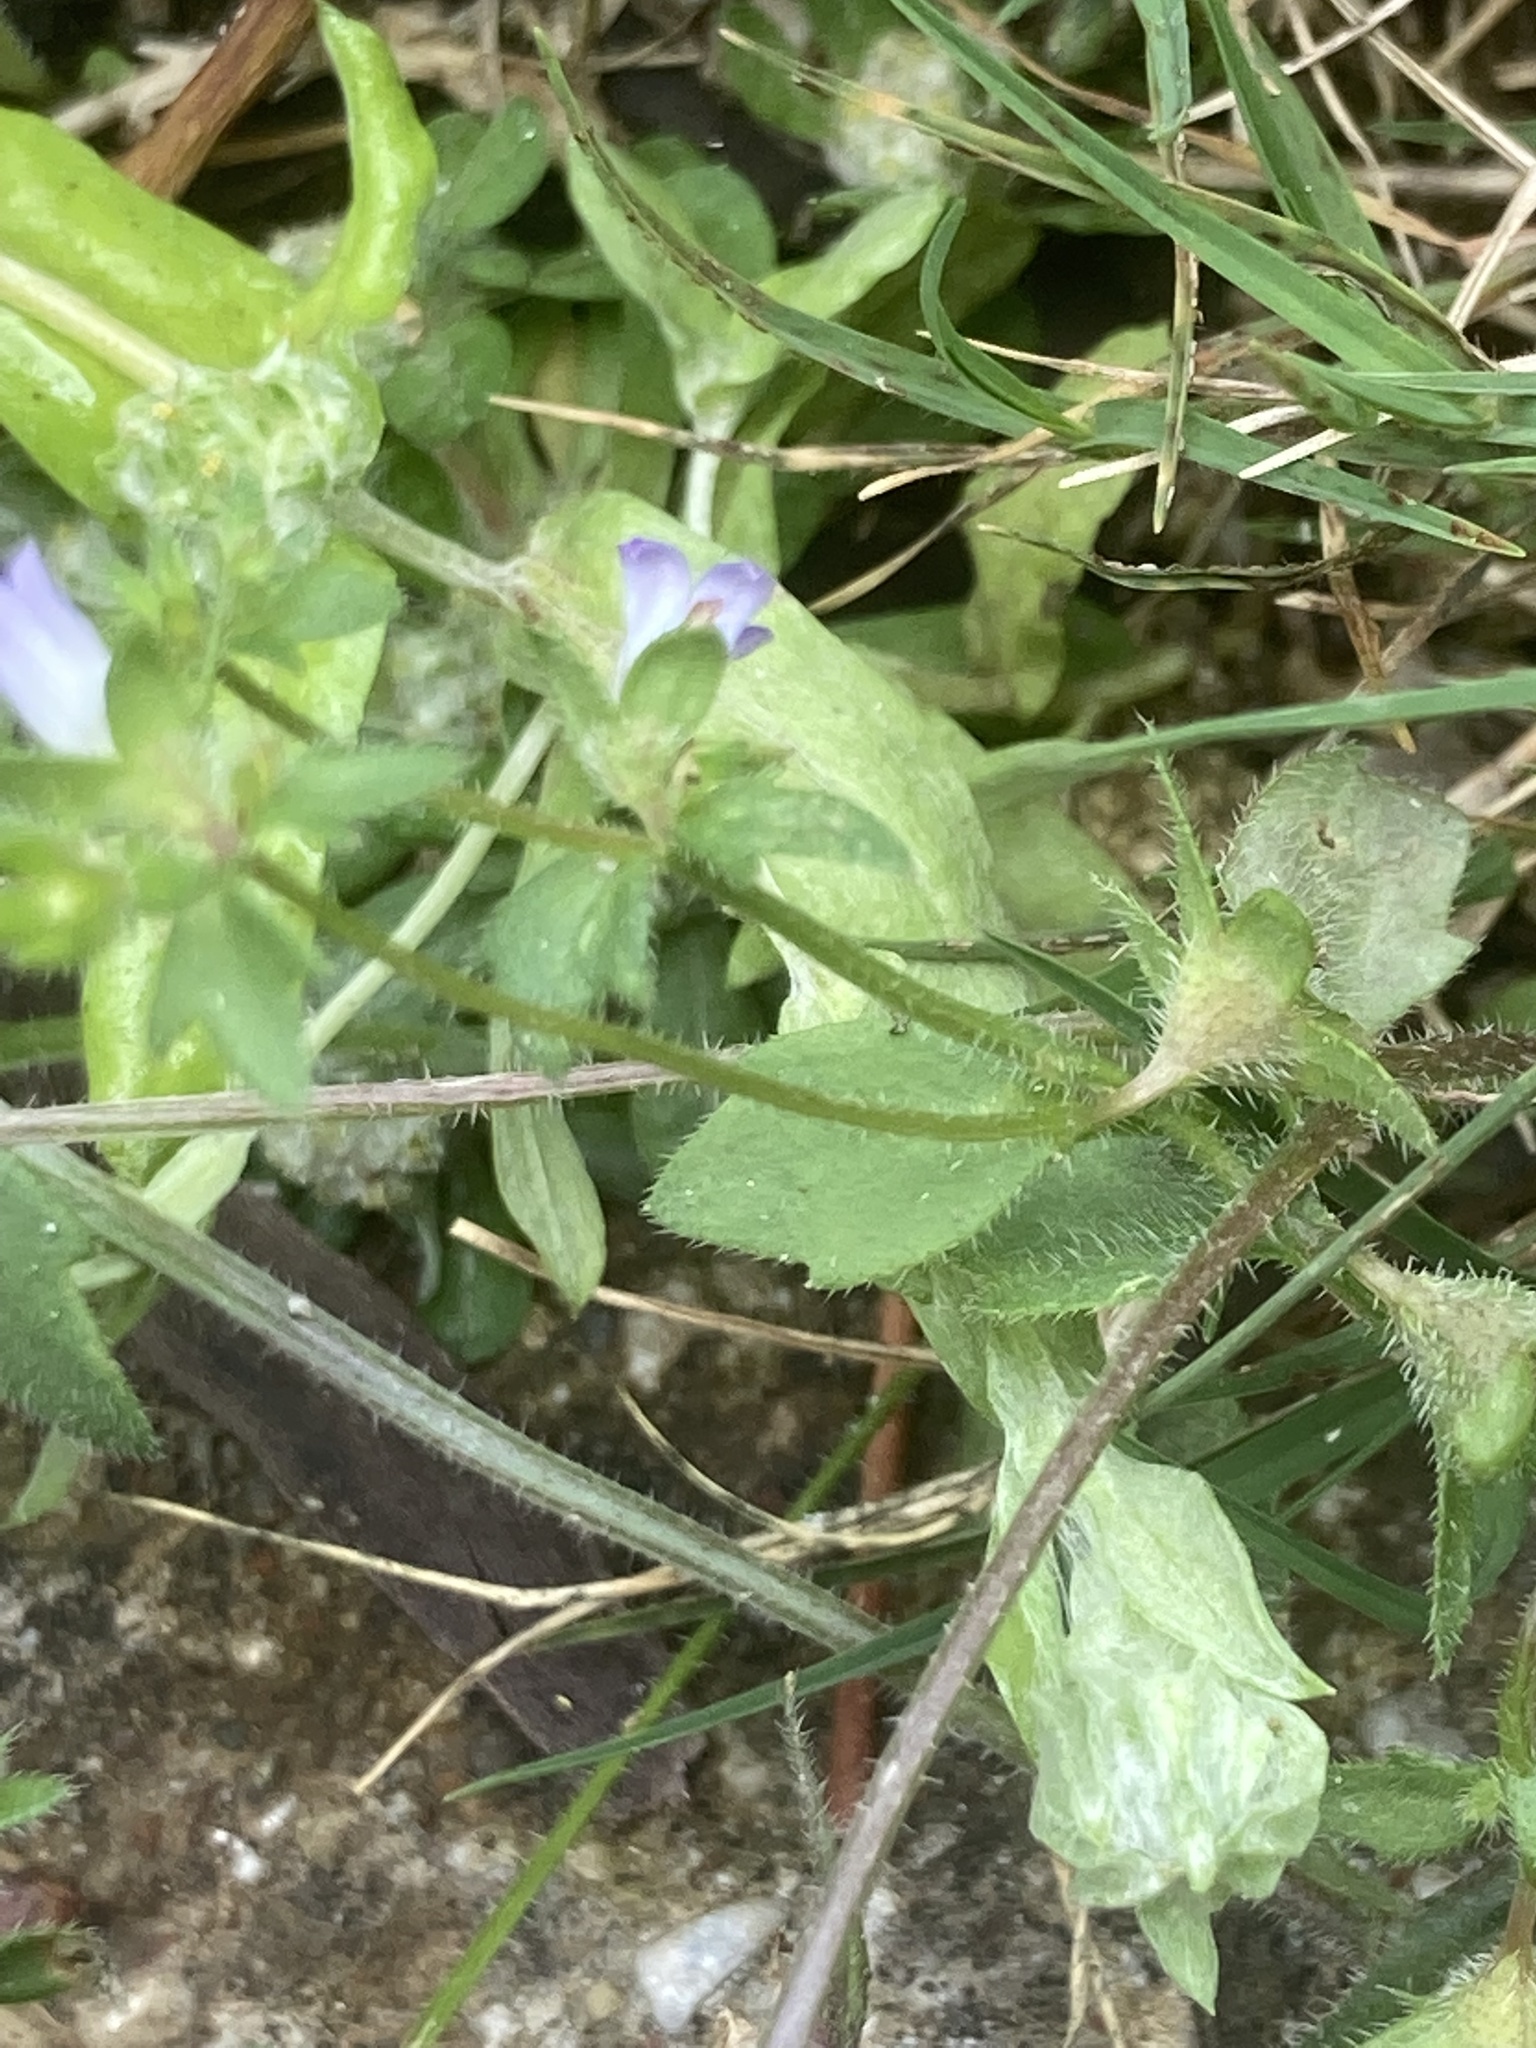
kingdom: Plantae
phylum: Tracheophyta
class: Magnoliopsida
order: Asterales
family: Campanulaceae
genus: Campanula
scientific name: Campanula
